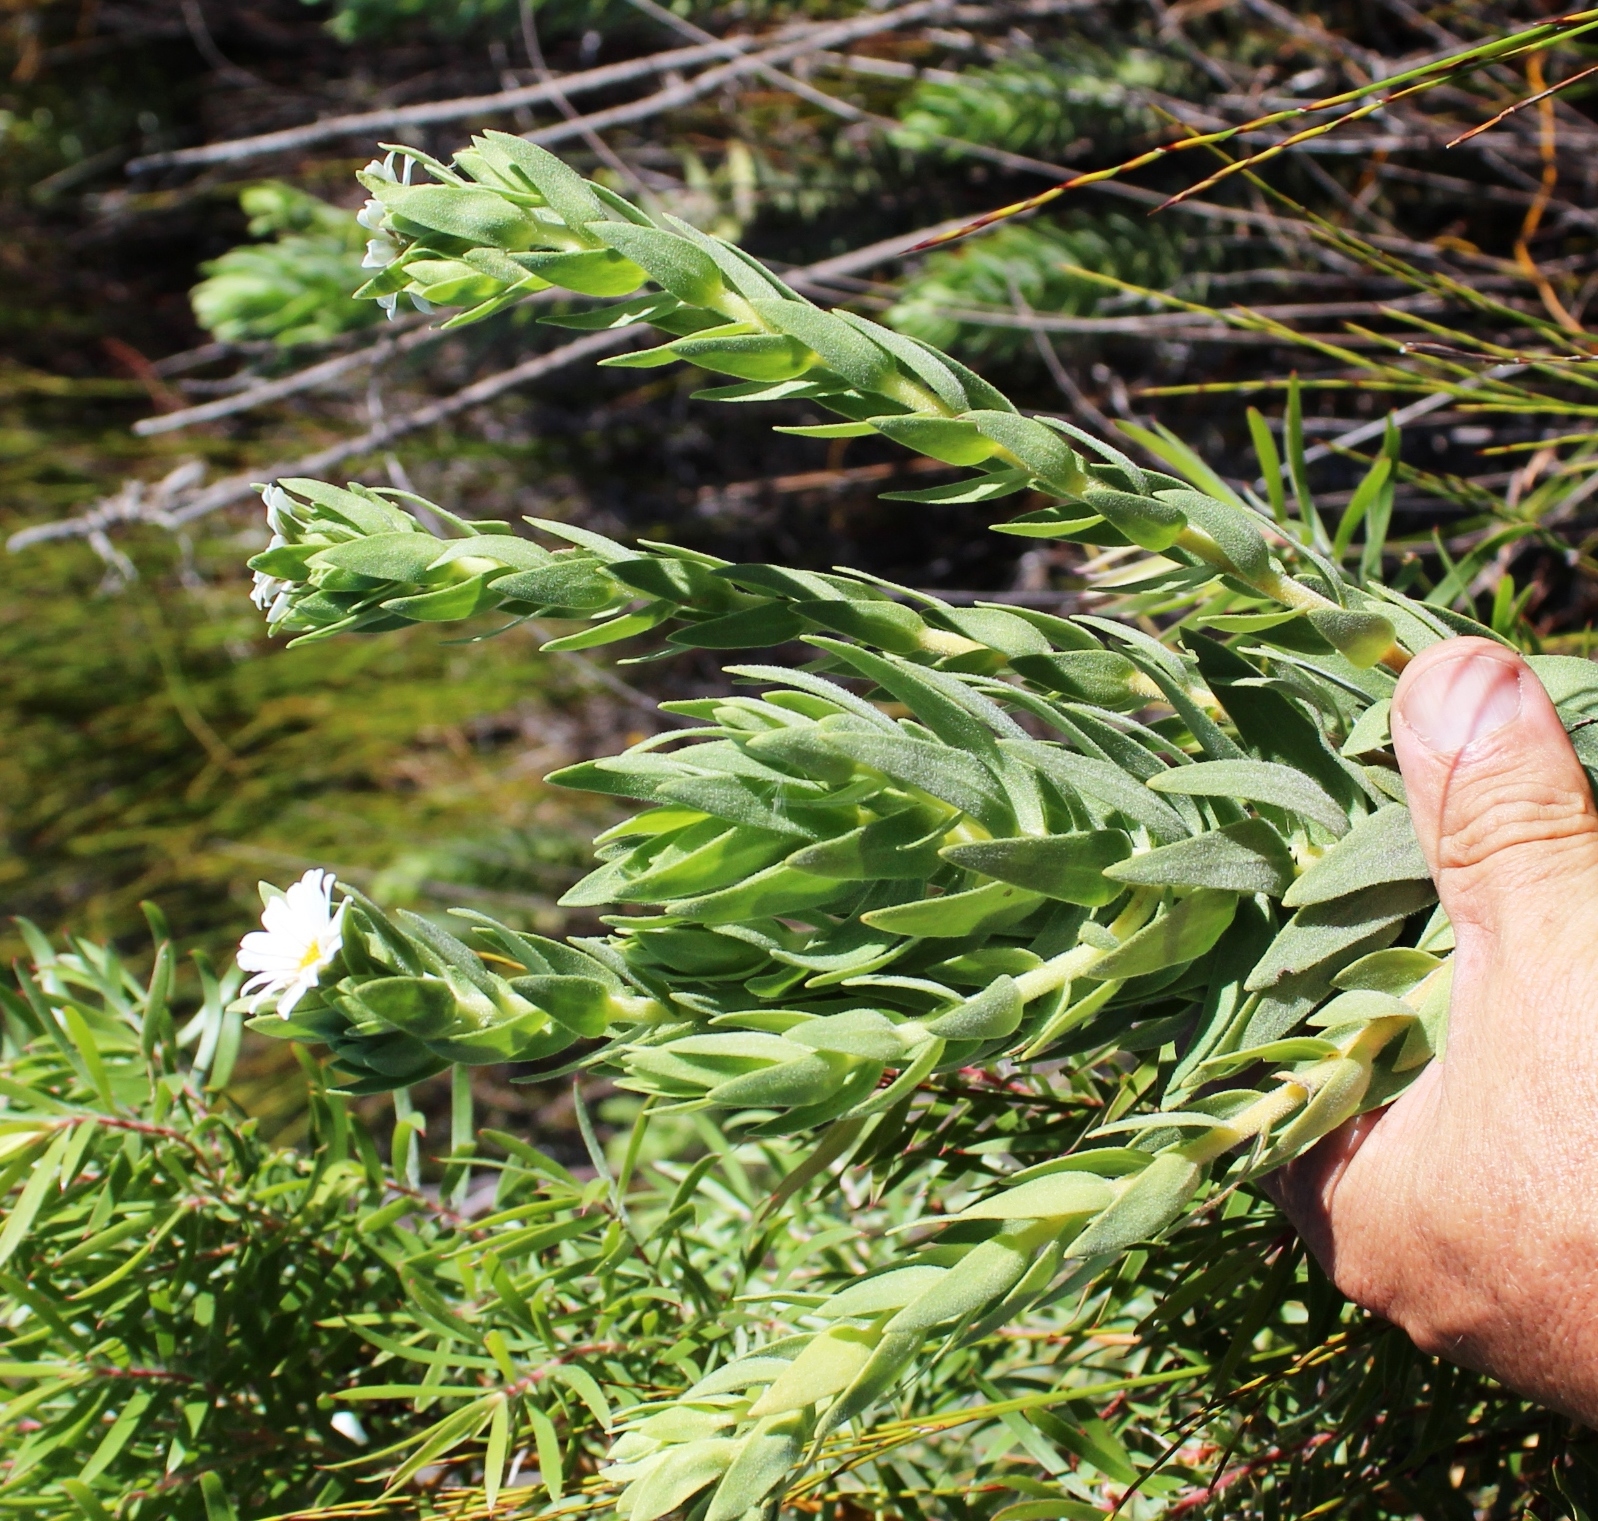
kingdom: Plantae
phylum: Tracheophyta
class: Magnoliopsida
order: Asterales
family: Asteraceae
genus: Osmitopsis
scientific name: Osmitopsis asteriscoides
